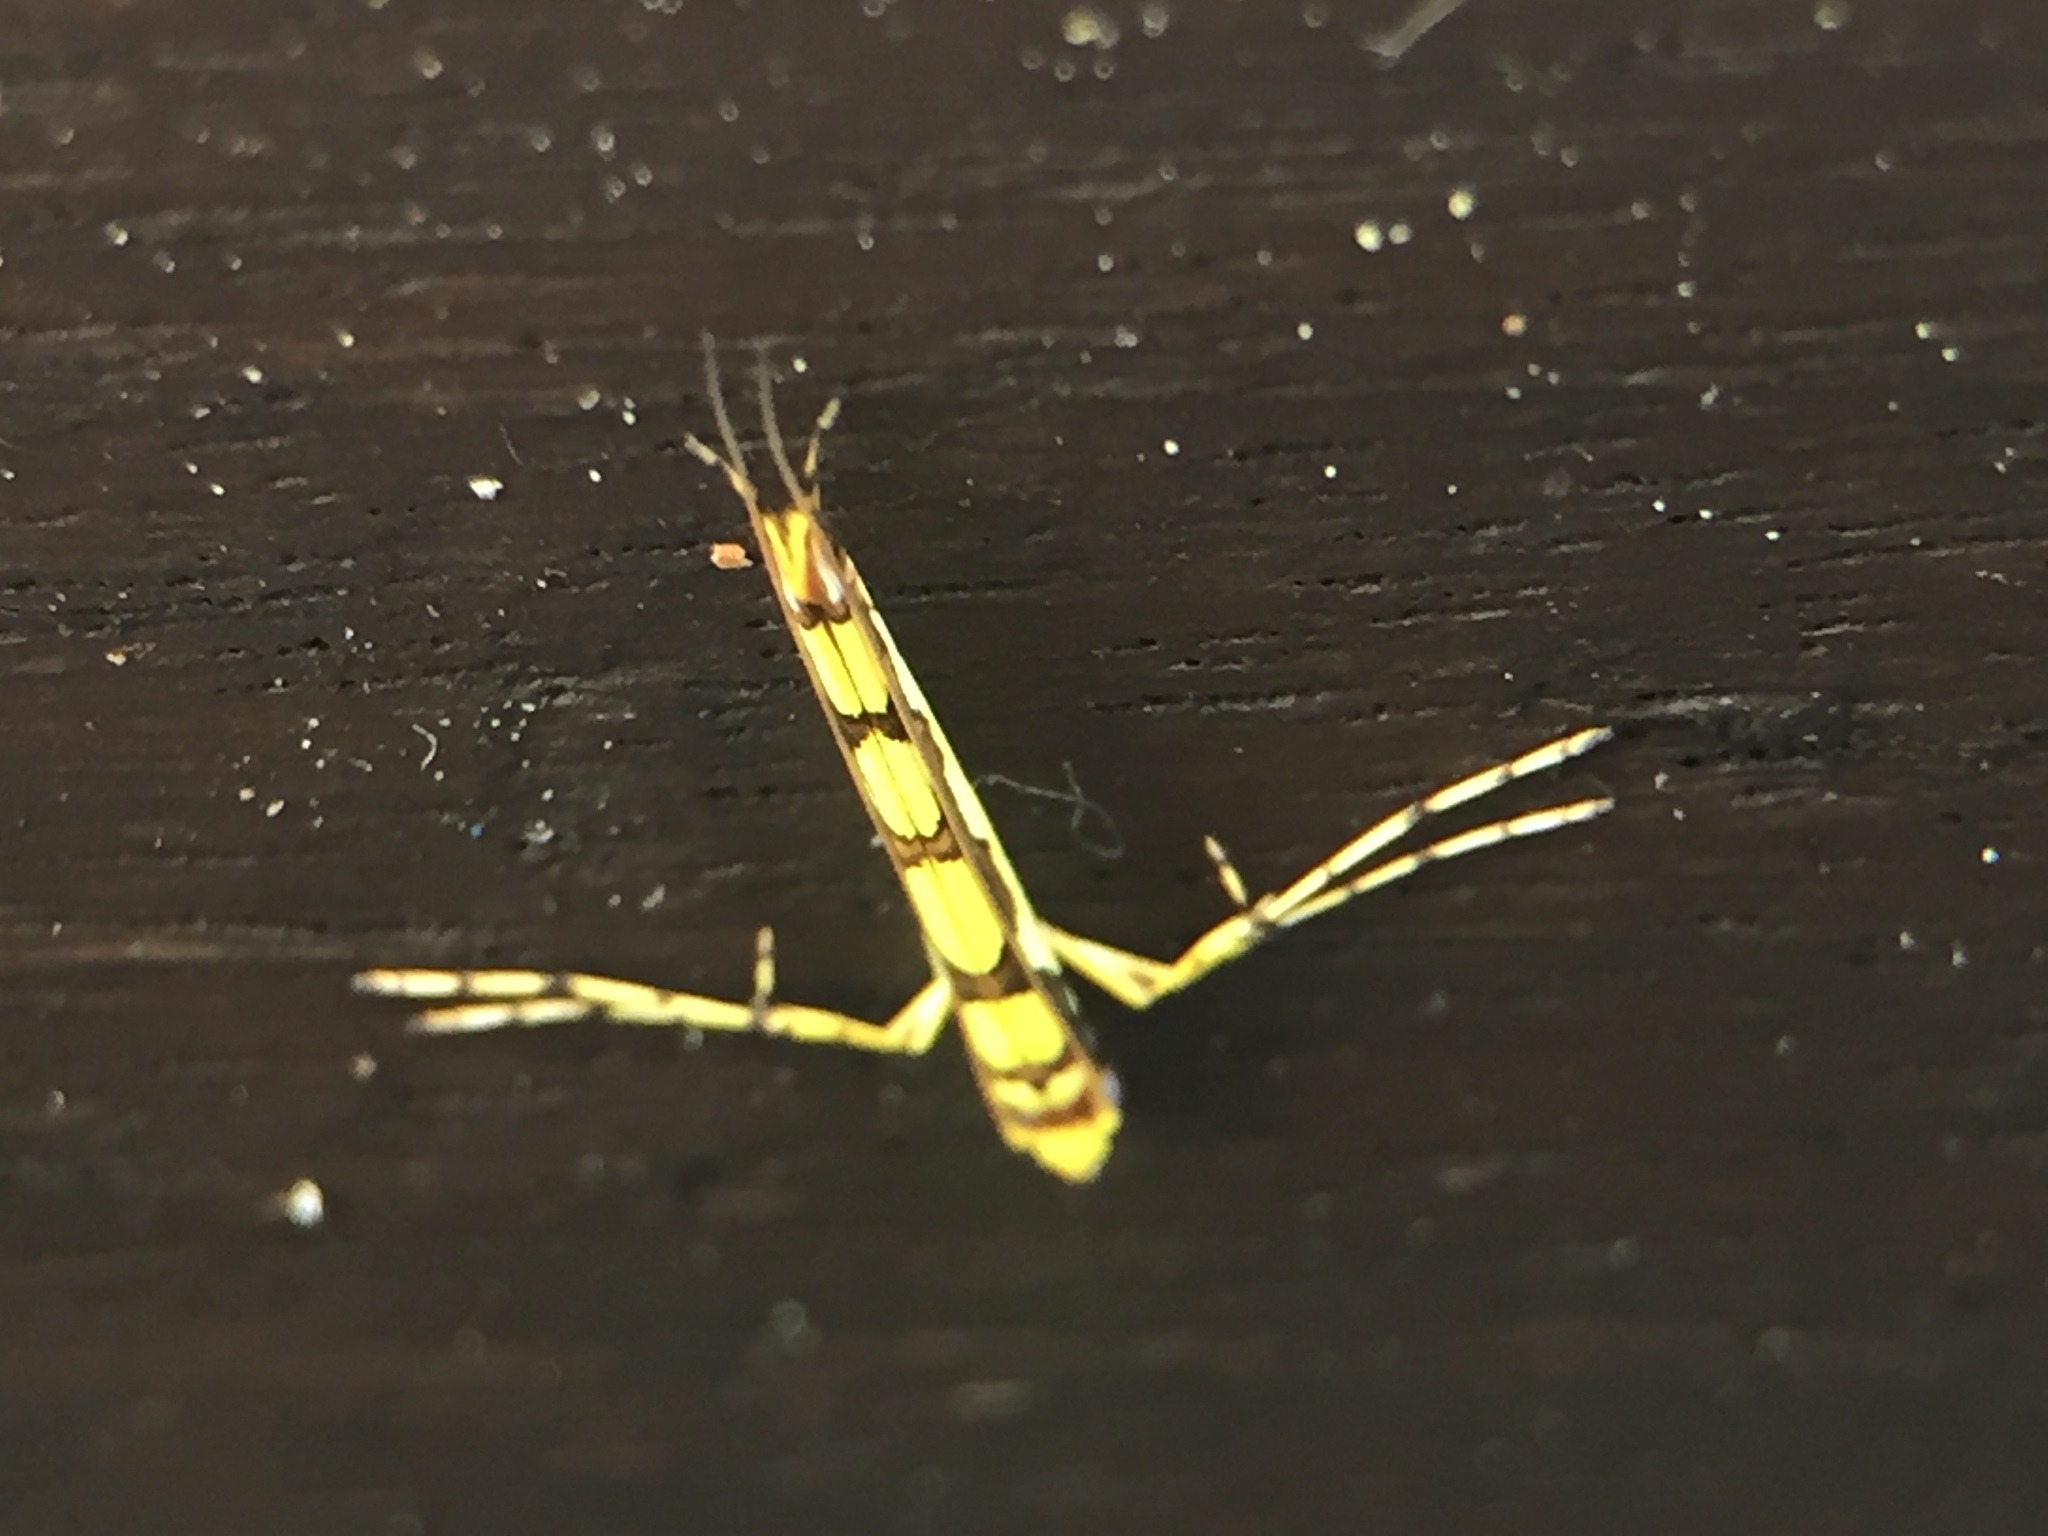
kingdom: Animalia
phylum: Arthropoda
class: Insecta
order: Lepidoptera
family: Gracillariidae
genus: Macarostola
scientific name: Macarostola miniella
